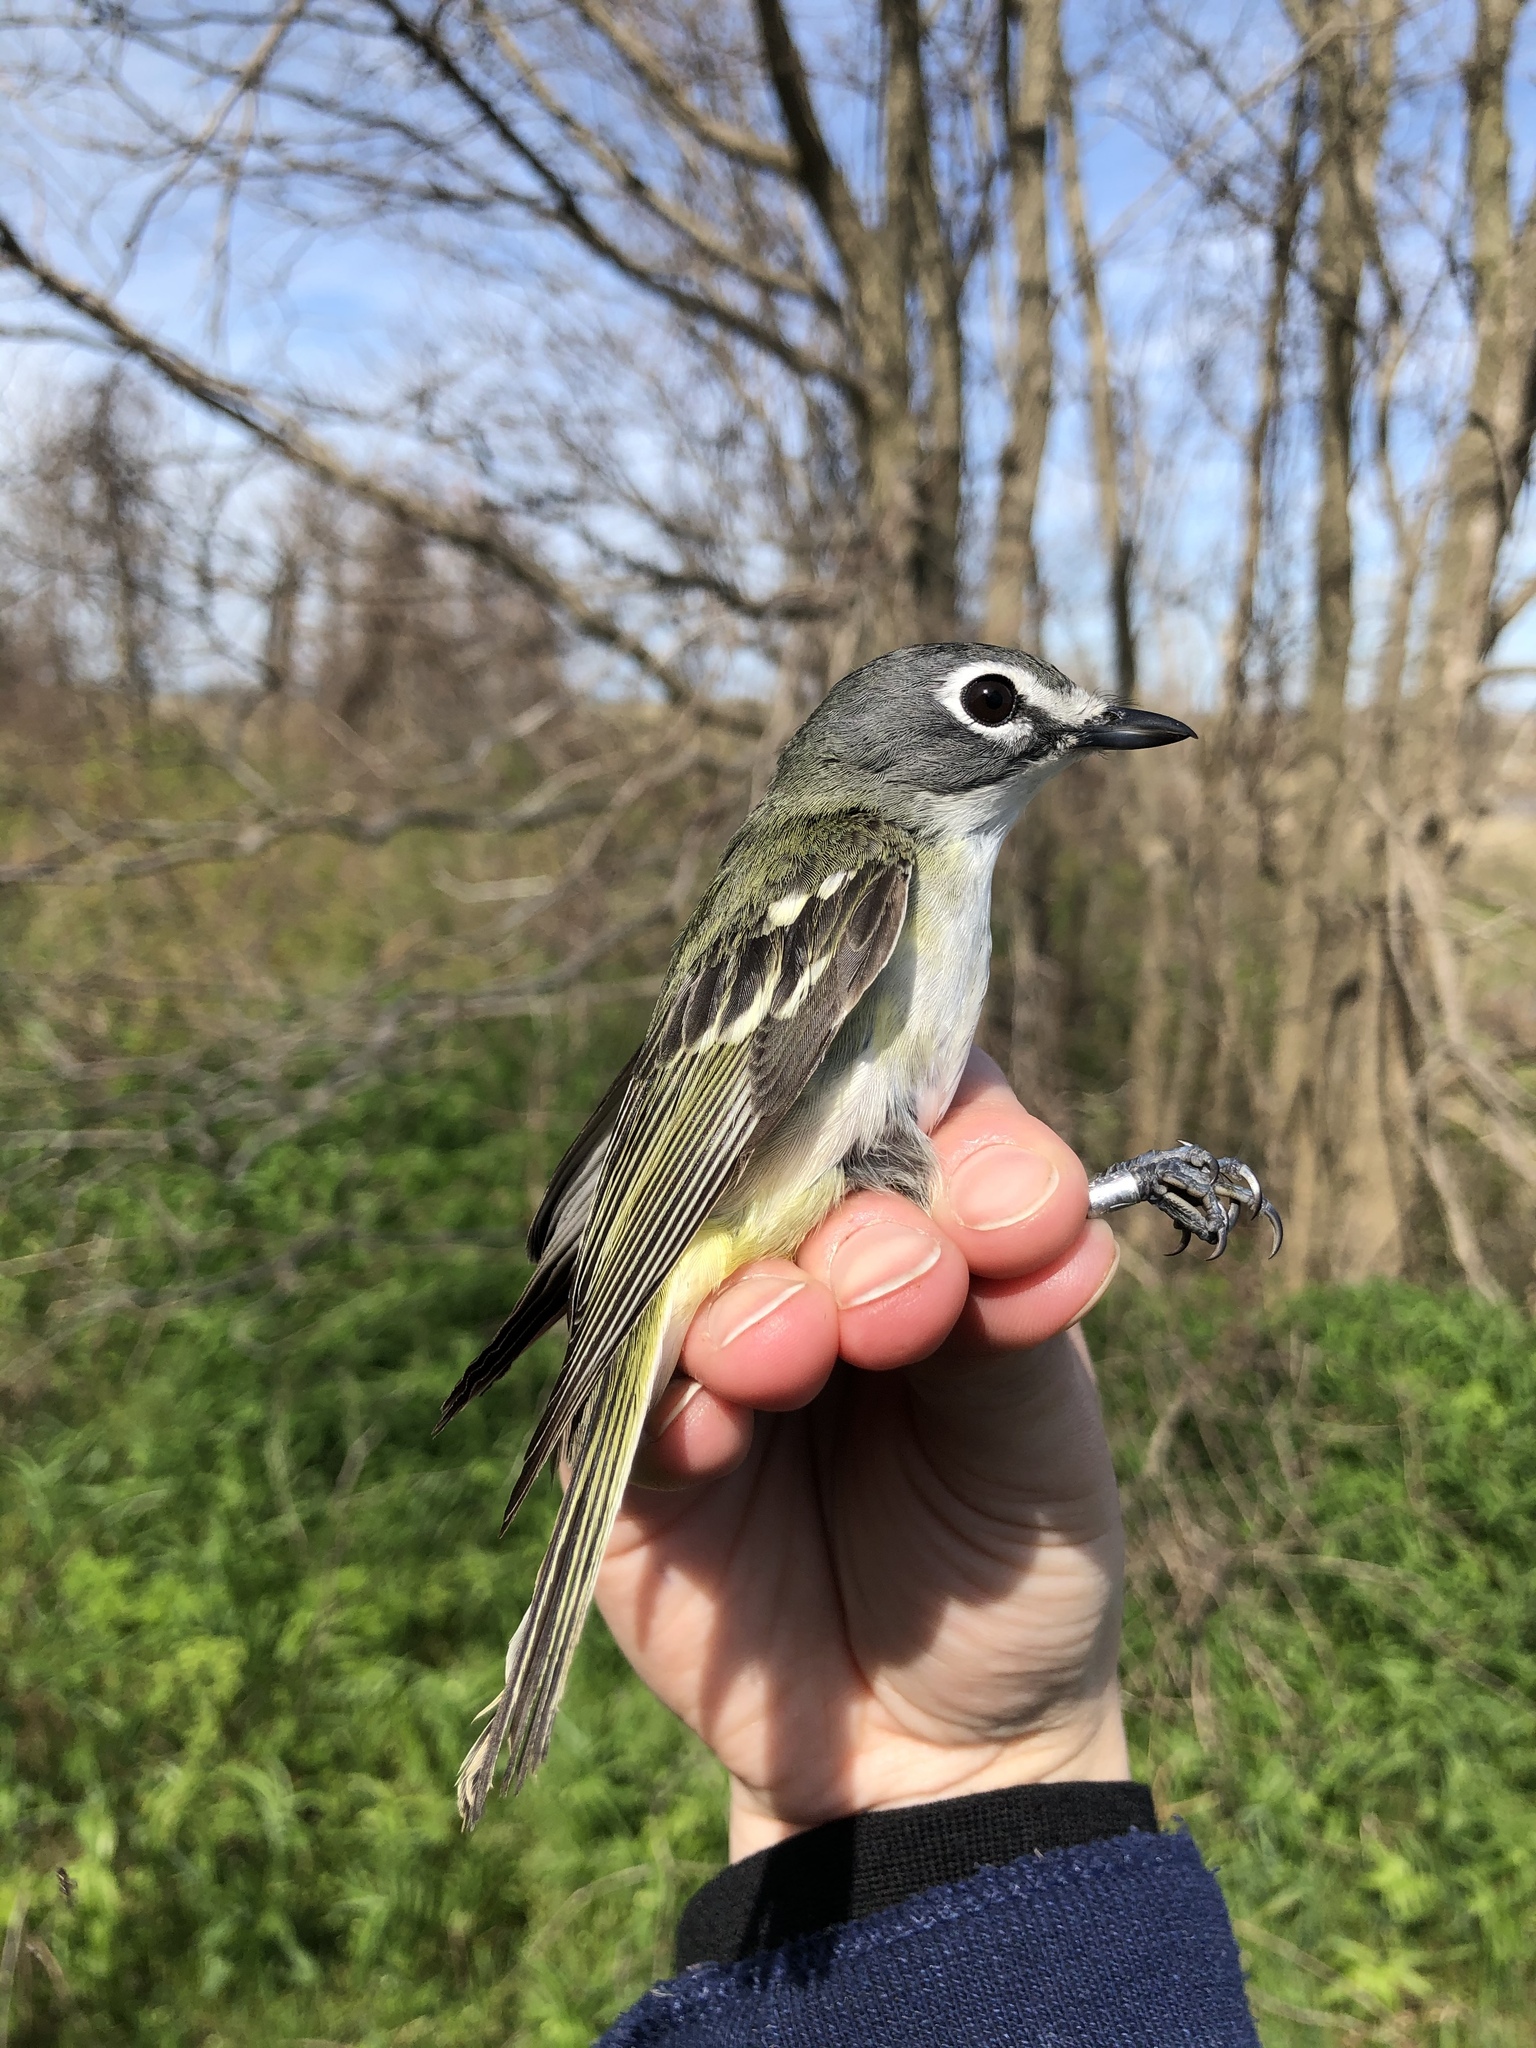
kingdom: Animalia
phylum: Chordata
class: Aves
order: Passeriformes
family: Vireonidae
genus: Vireo
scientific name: Vireo solitarius
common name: Blue-headed vireo
